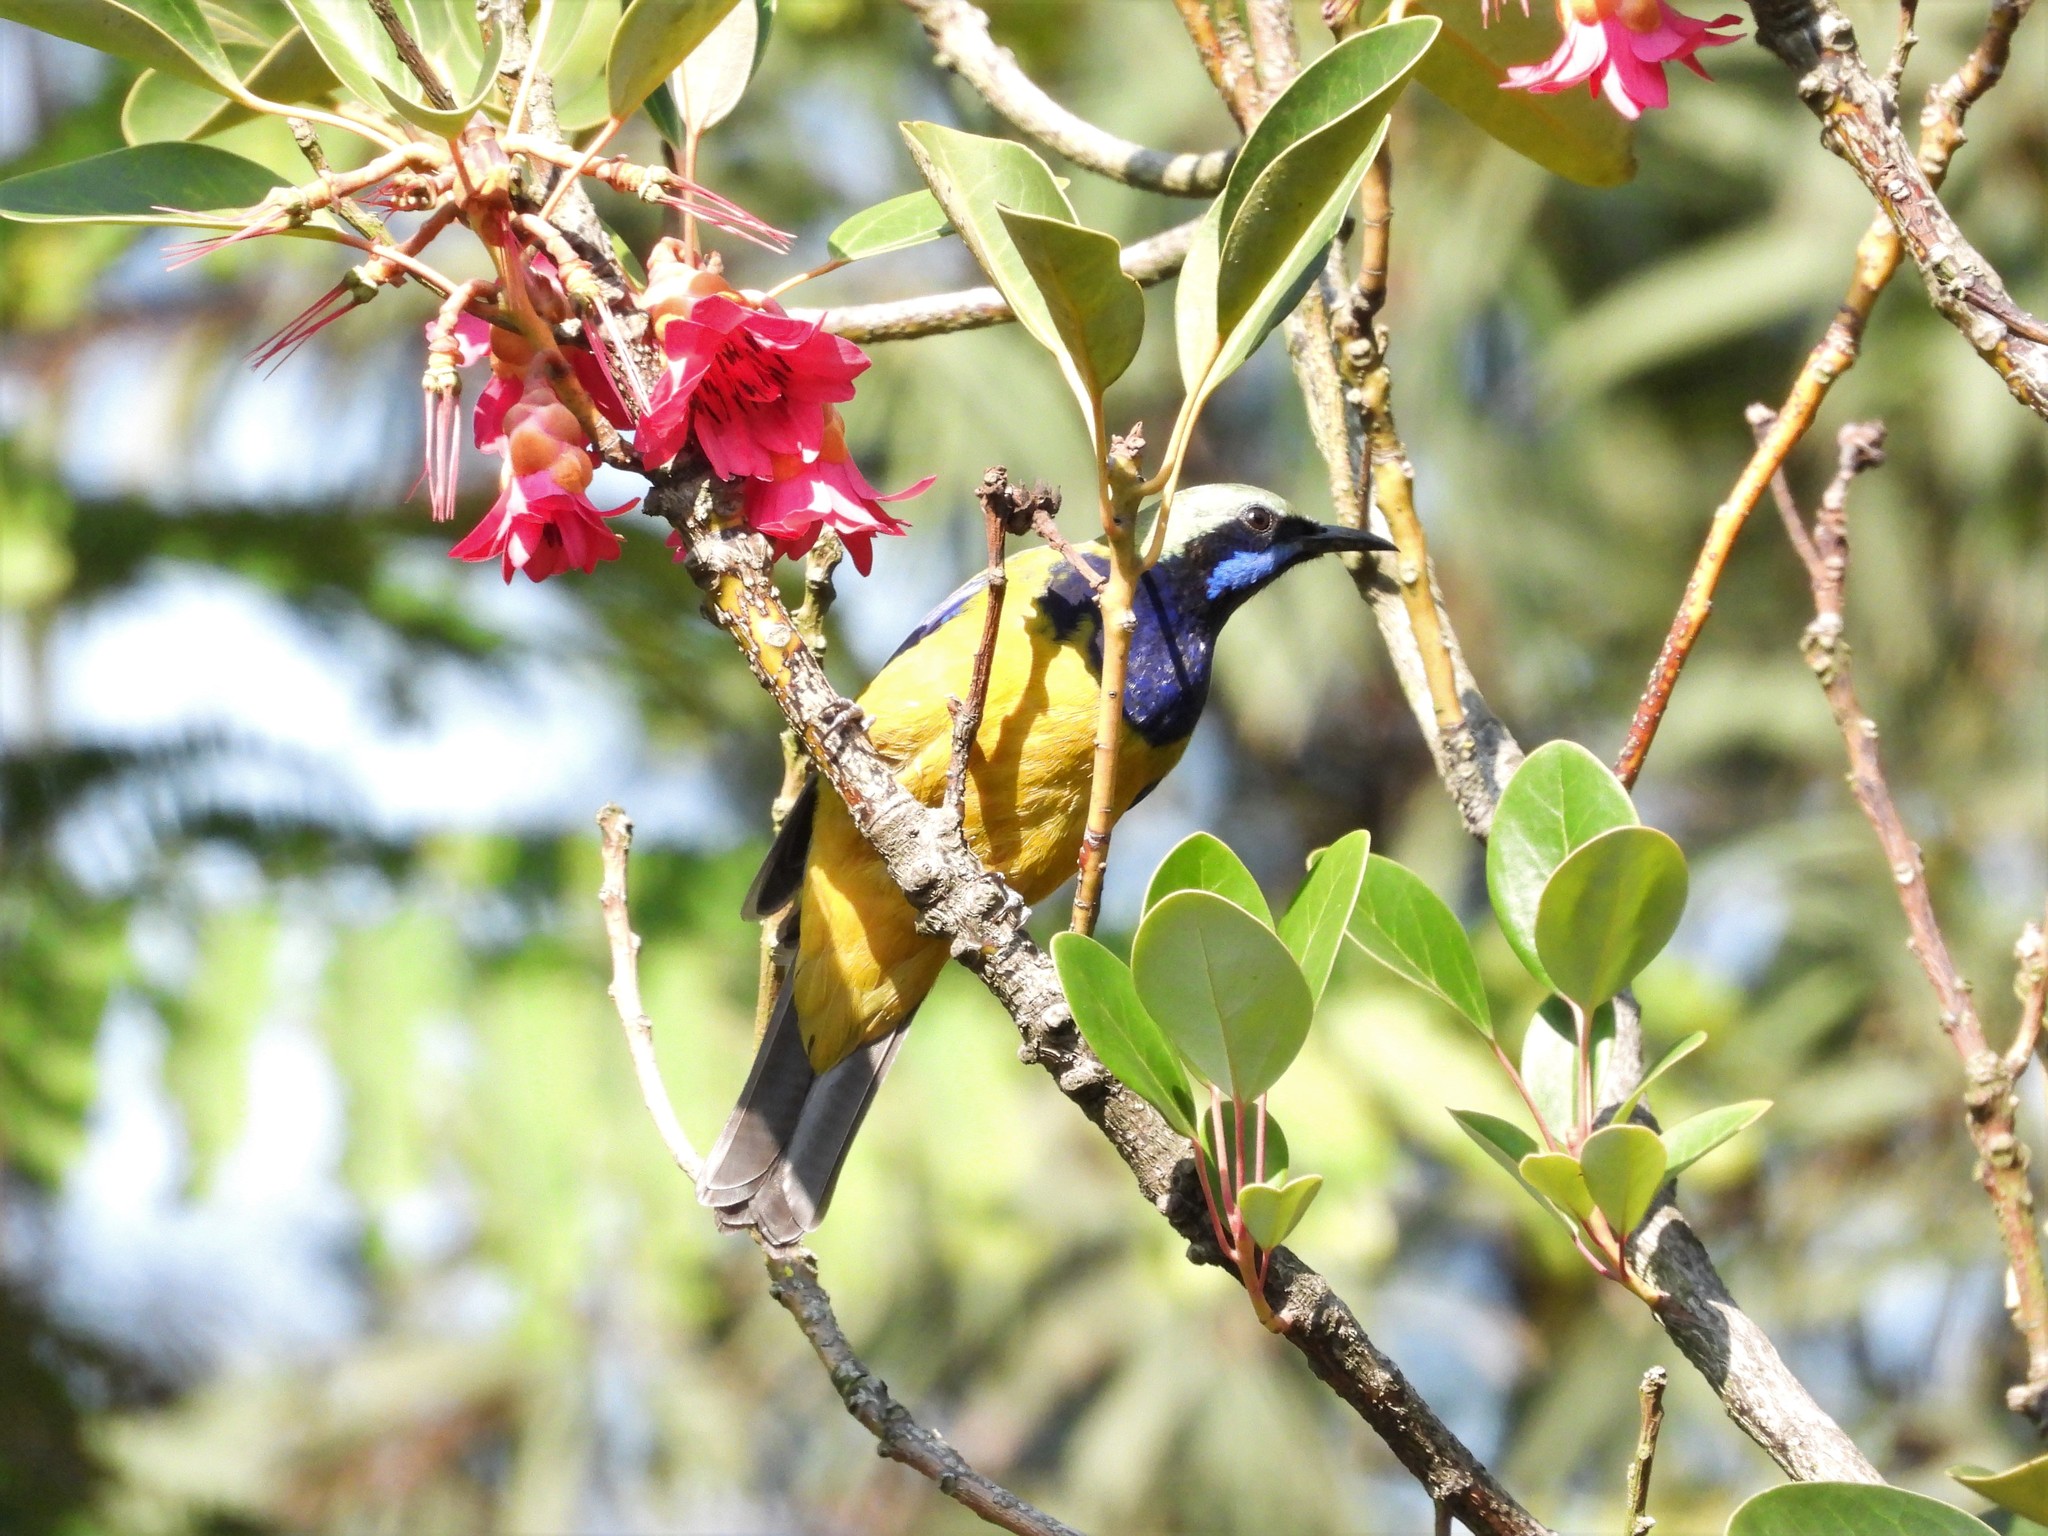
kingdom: Animalia
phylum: Chordata
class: Aves
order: Passeriformes
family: Chloropseidae
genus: Chloropsis
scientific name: Chloropsis hardwickii
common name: Orange-bellied leafbird
